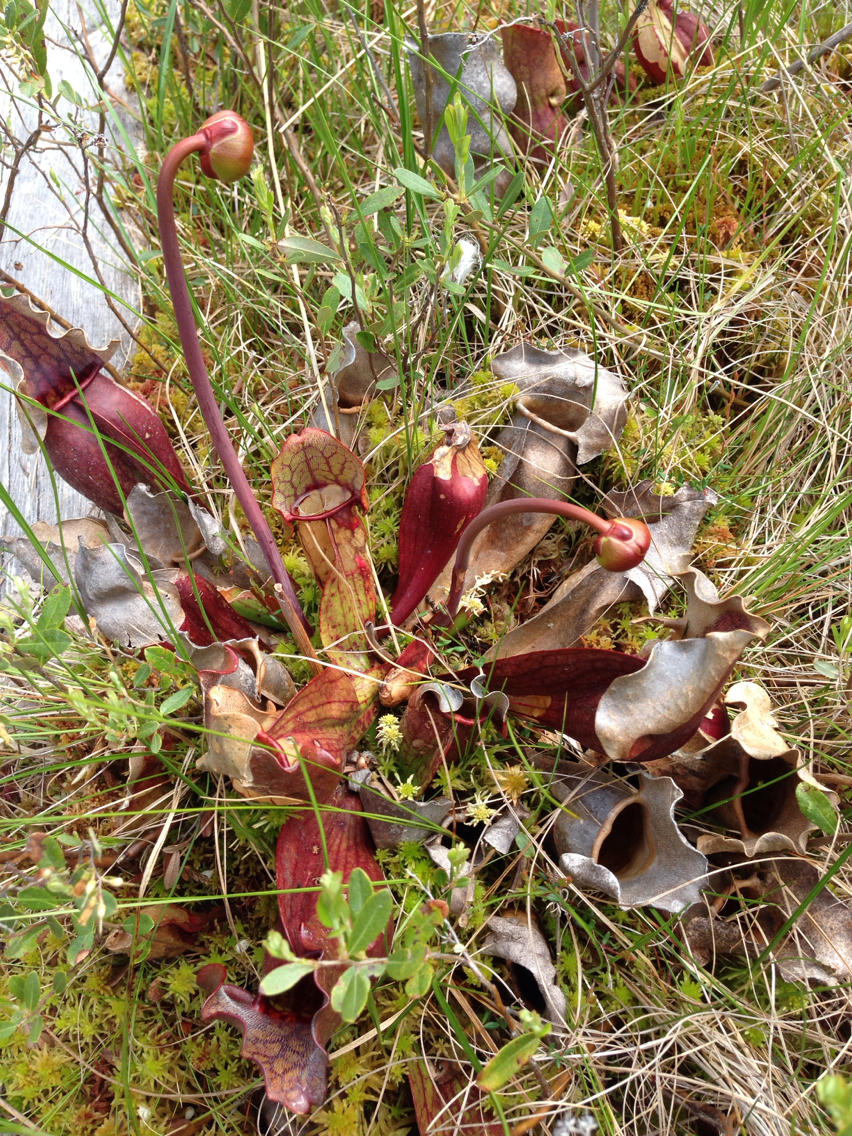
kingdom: Plantae
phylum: Tracheophyta
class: Magnoliopsida
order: Ericales
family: Sarraceniaceae
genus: Sarracenia
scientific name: Sarracenia purpurea
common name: Pitcherplant
